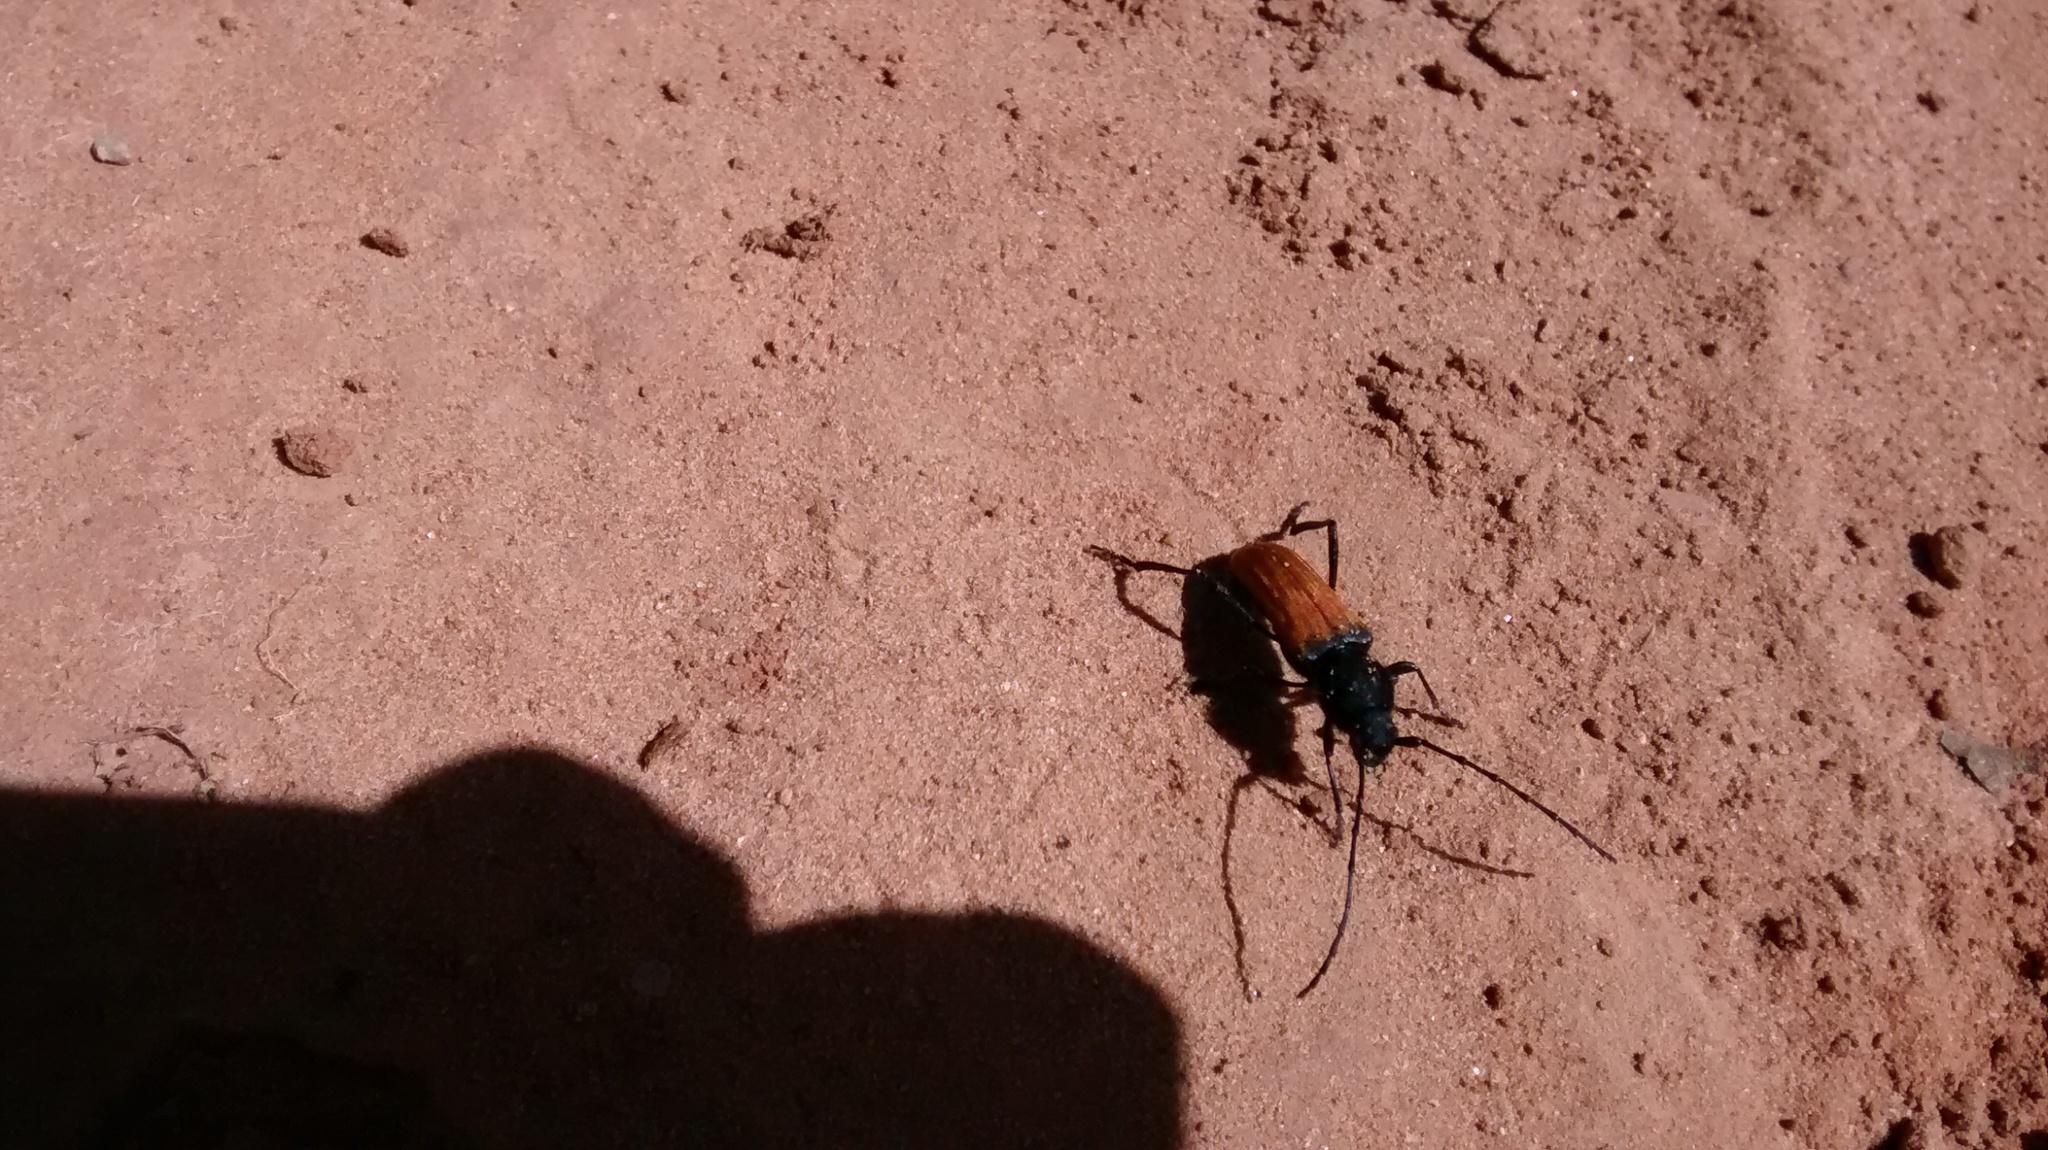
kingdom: Animalia
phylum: Arthropoda
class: Insecta
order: Coleoptera
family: Cerambycidae
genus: Tragidion
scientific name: Tragidion densiventre
